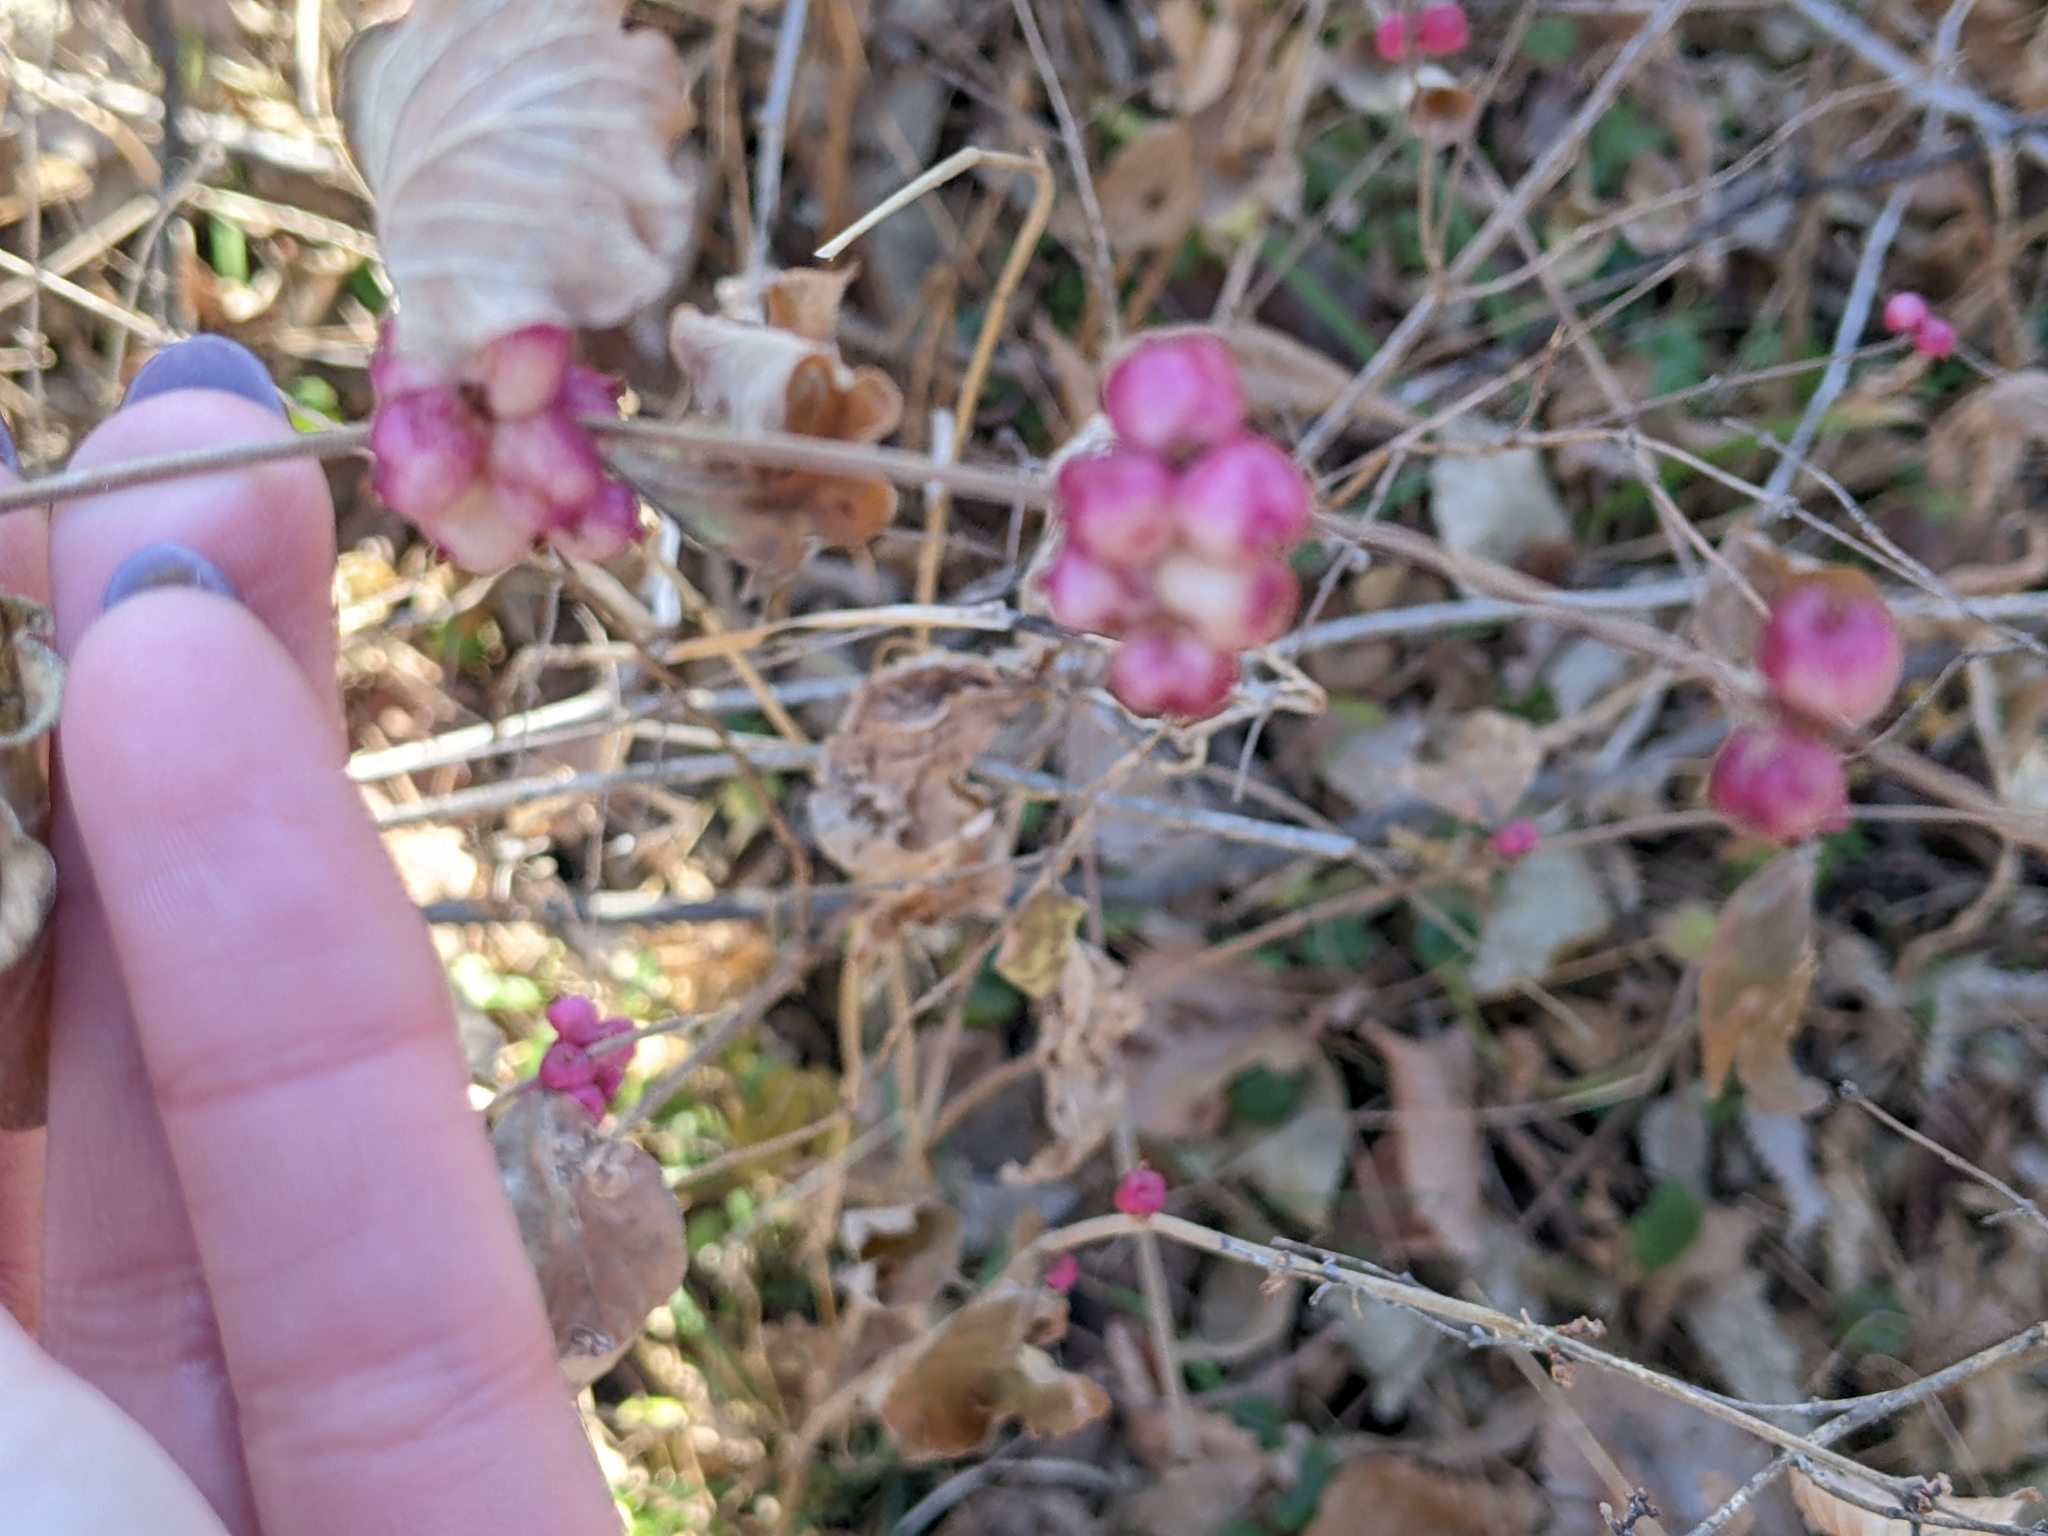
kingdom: Plantae
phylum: Tracheophyta
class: Magnoliopsida
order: Dipsacales
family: Caprifoliaceae
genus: Symphoricarpos
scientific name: Symphoricarpos orbiculatus
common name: Coralberry
